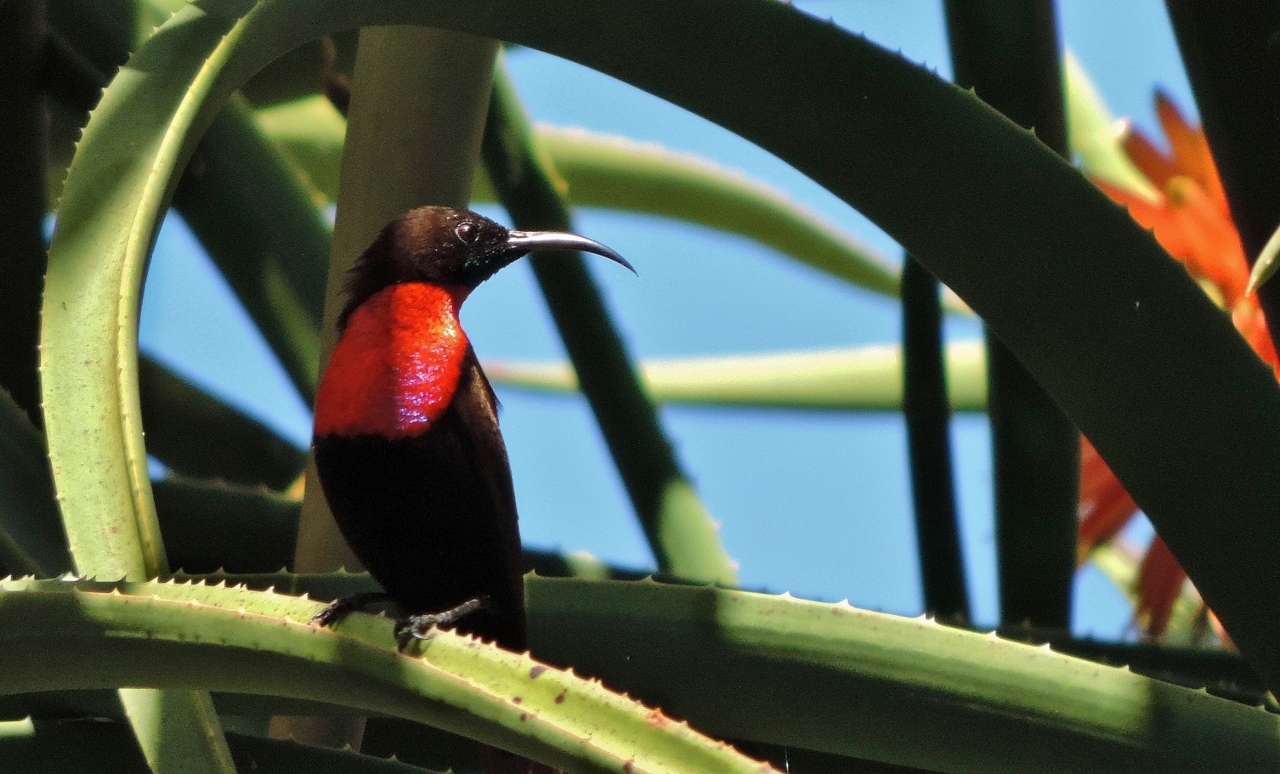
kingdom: Animalia
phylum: Chordata
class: Aves
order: Passeriformes
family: Nectariniidae
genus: Chalcomitra
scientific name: Chalcomitra senegalensis
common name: Scarlet-chested sunbird
